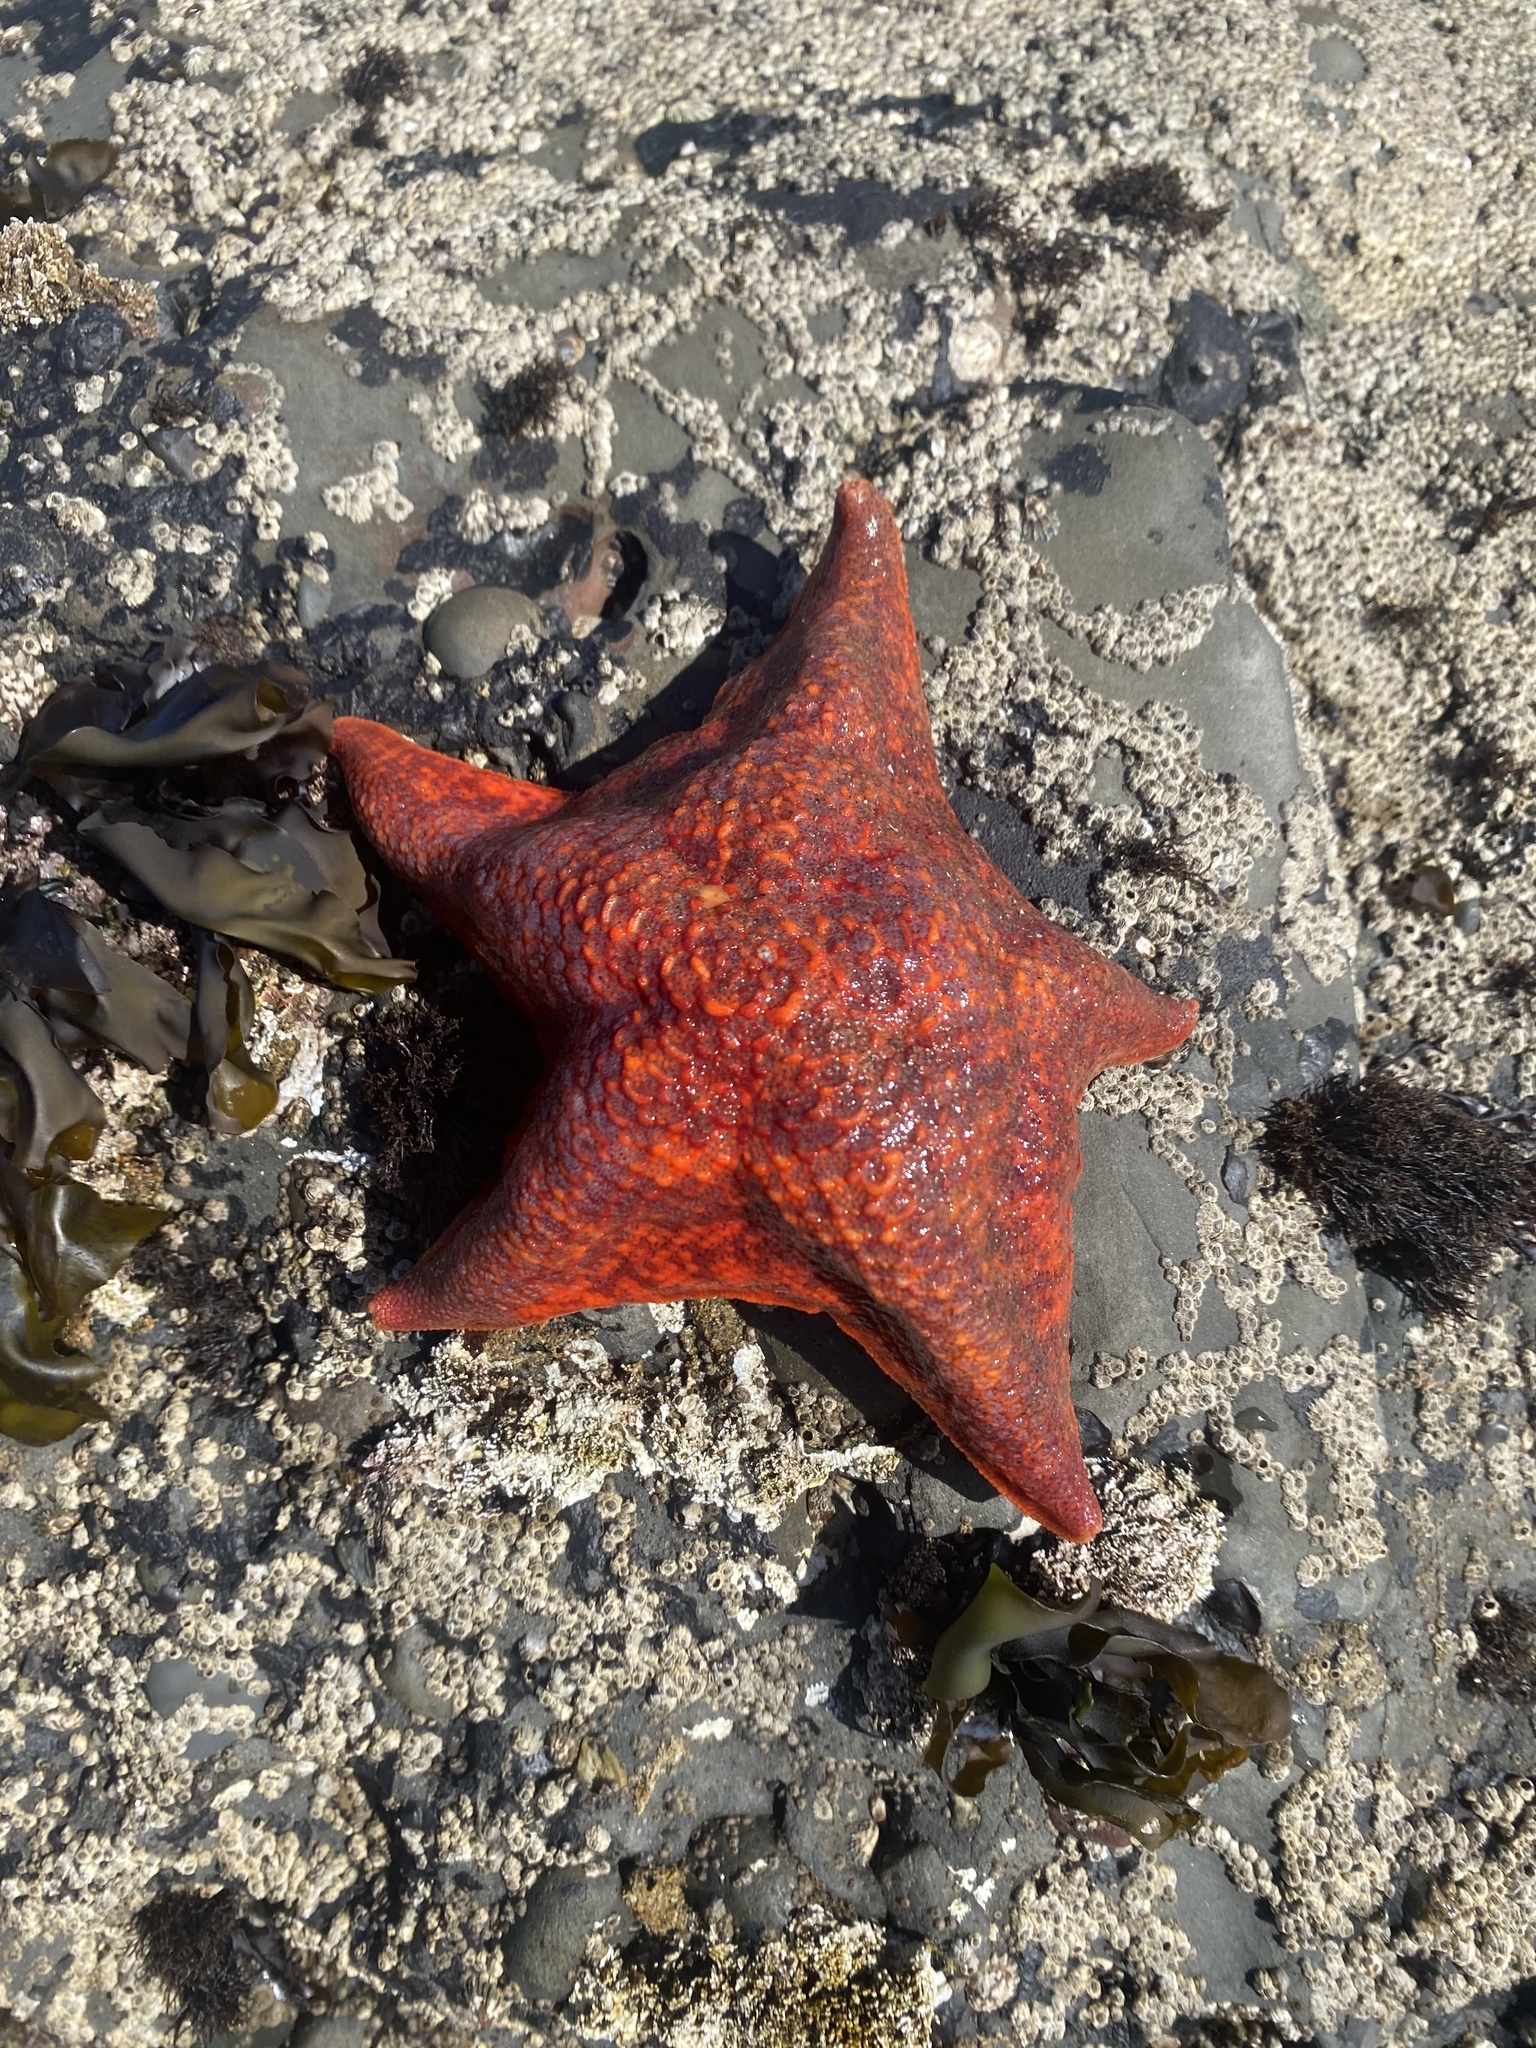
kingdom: Animalia
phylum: Echinodermata
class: Asteroidea
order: Valvatida
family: Asterinidae
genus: Patiria
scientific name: Patiria miniata
